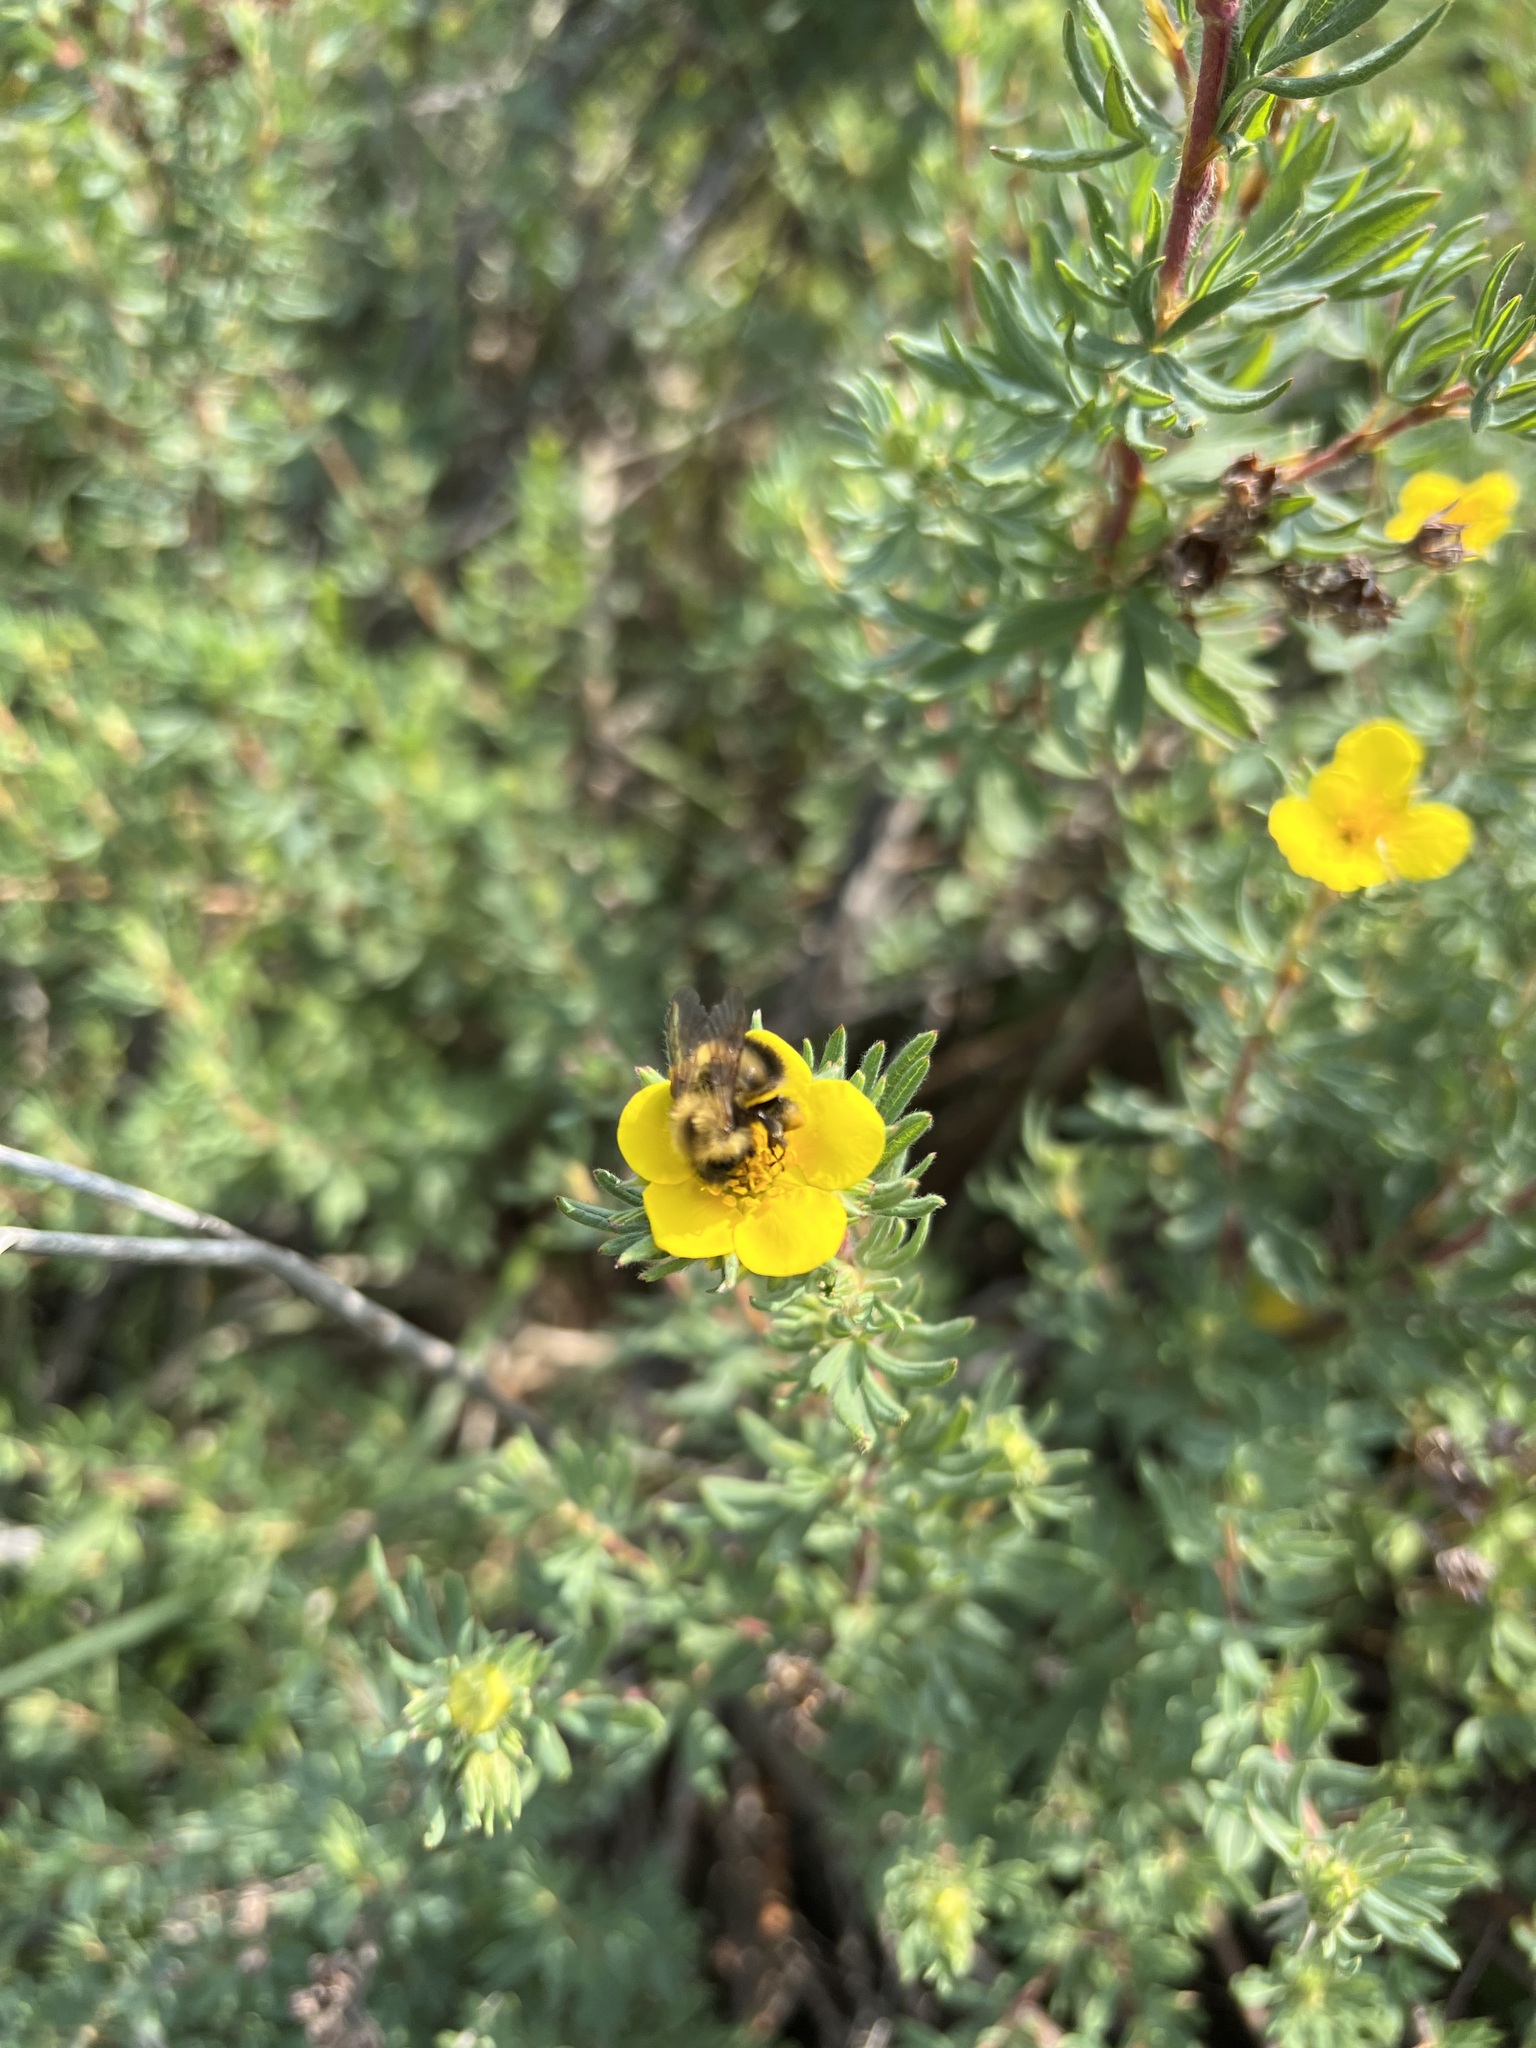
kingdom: Animalia
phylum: Arthropoda
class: Insecta
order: Hymenoptera
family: Apidae
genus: Bombus
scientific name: Bombus perplexus
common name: Confusing bumble bee
